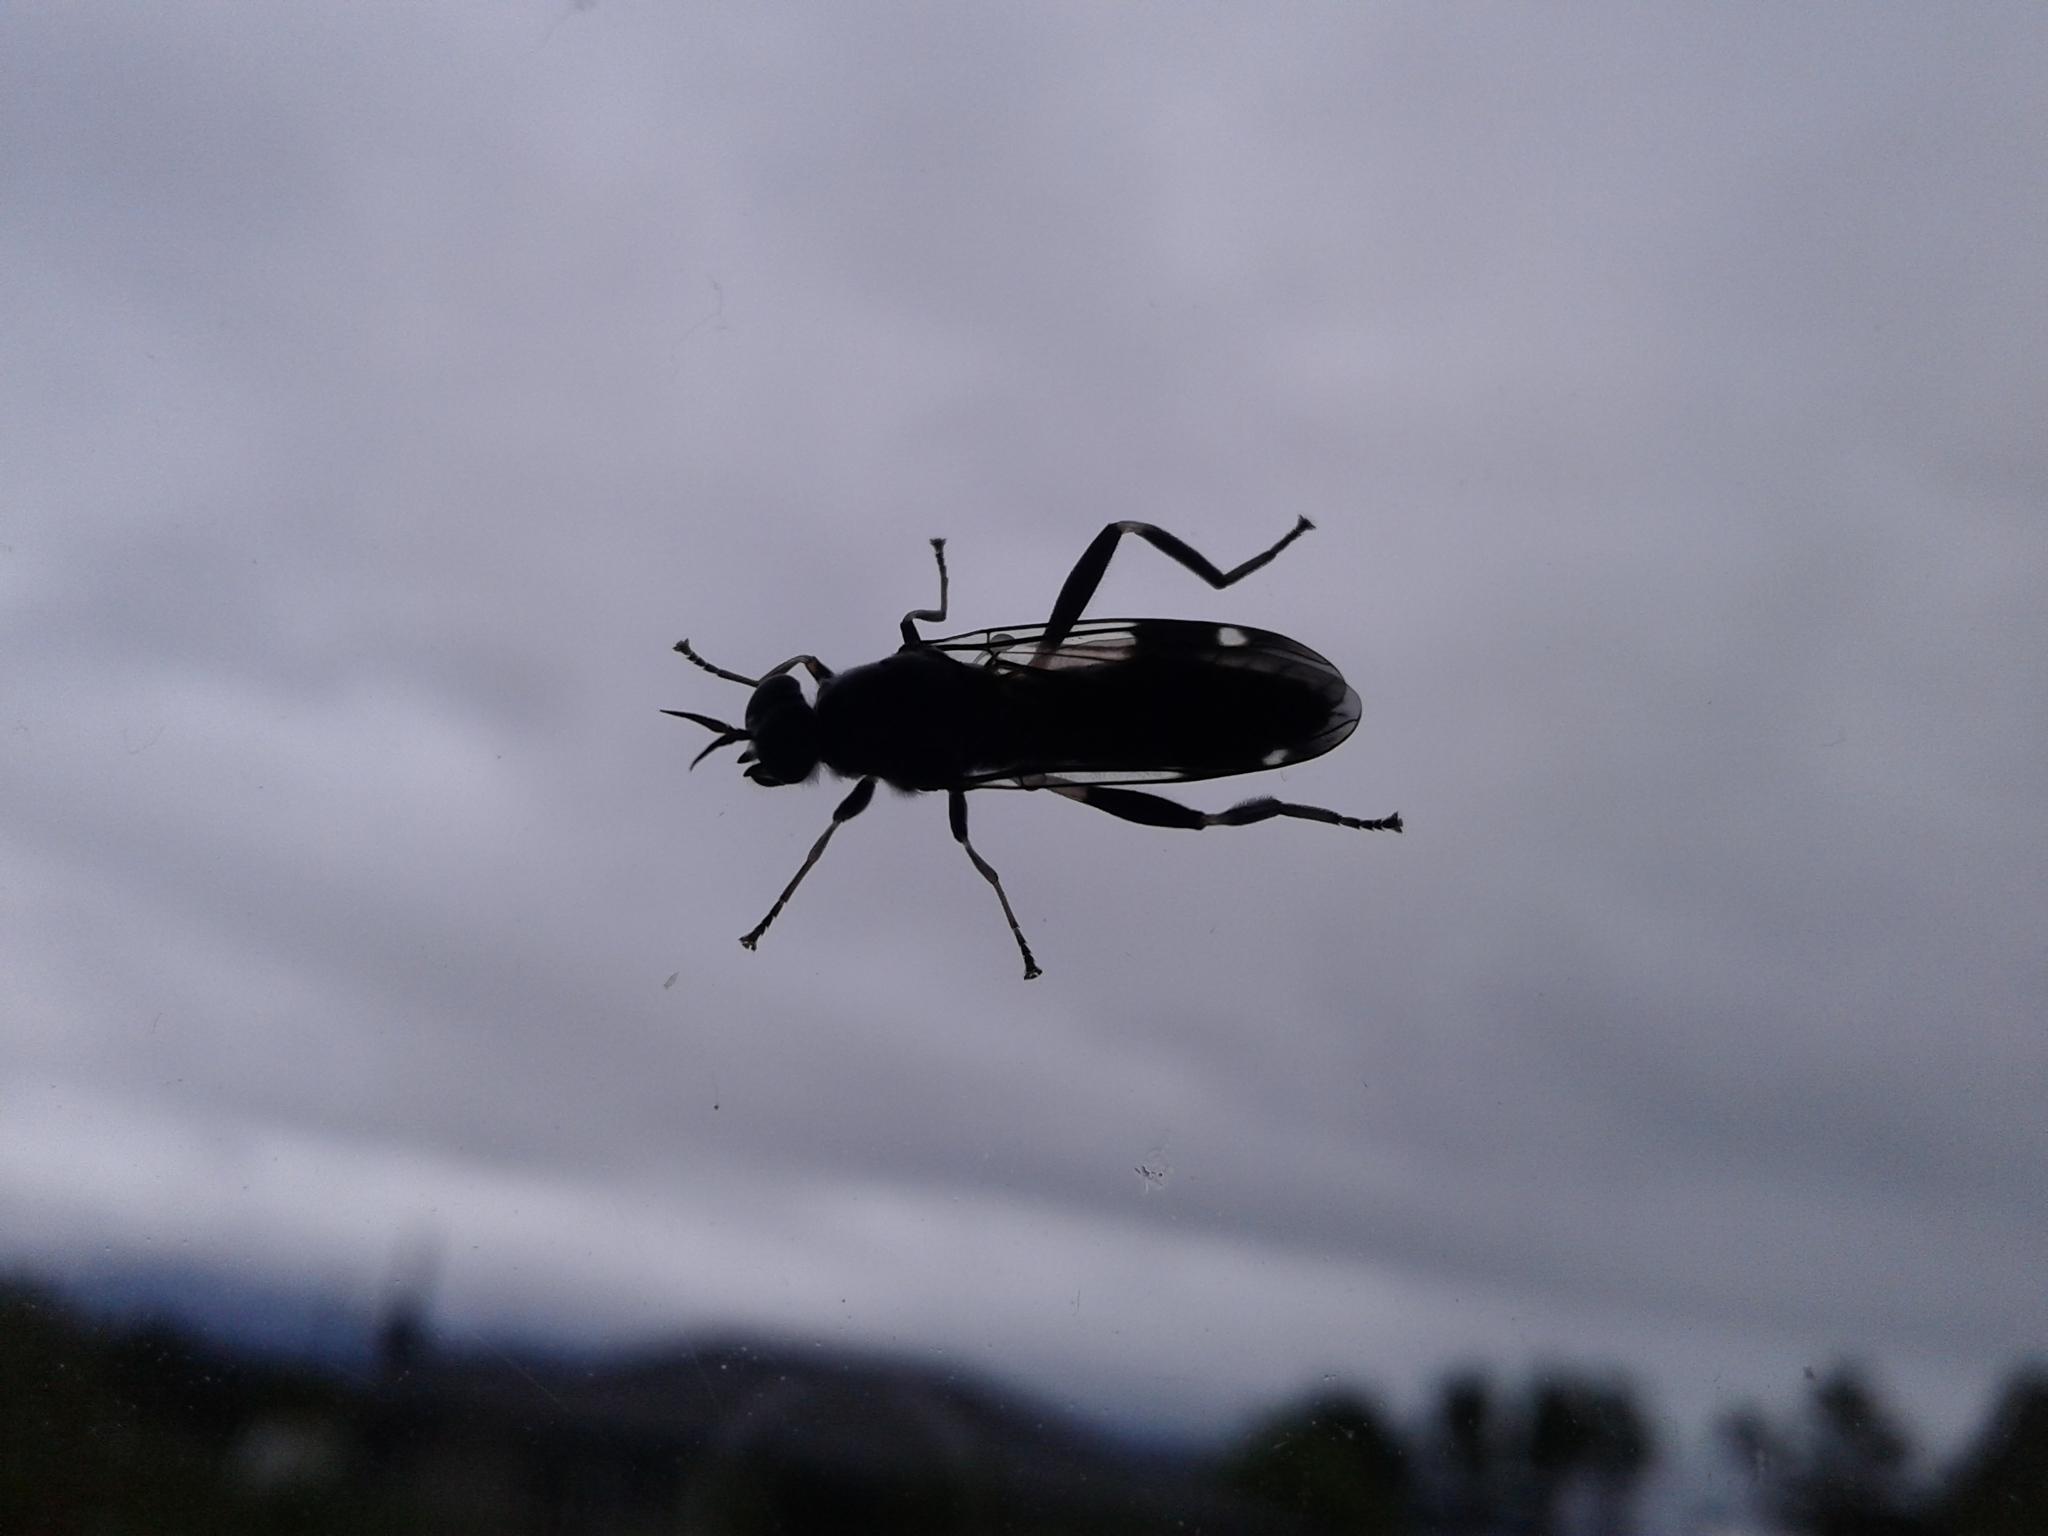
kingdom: Animalia
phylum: Arthropoda
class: Insecta
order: Diptera
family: Stratiomyidae
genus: Exaireta
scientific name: Exaireta spinigera
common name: Blue soldier fly
